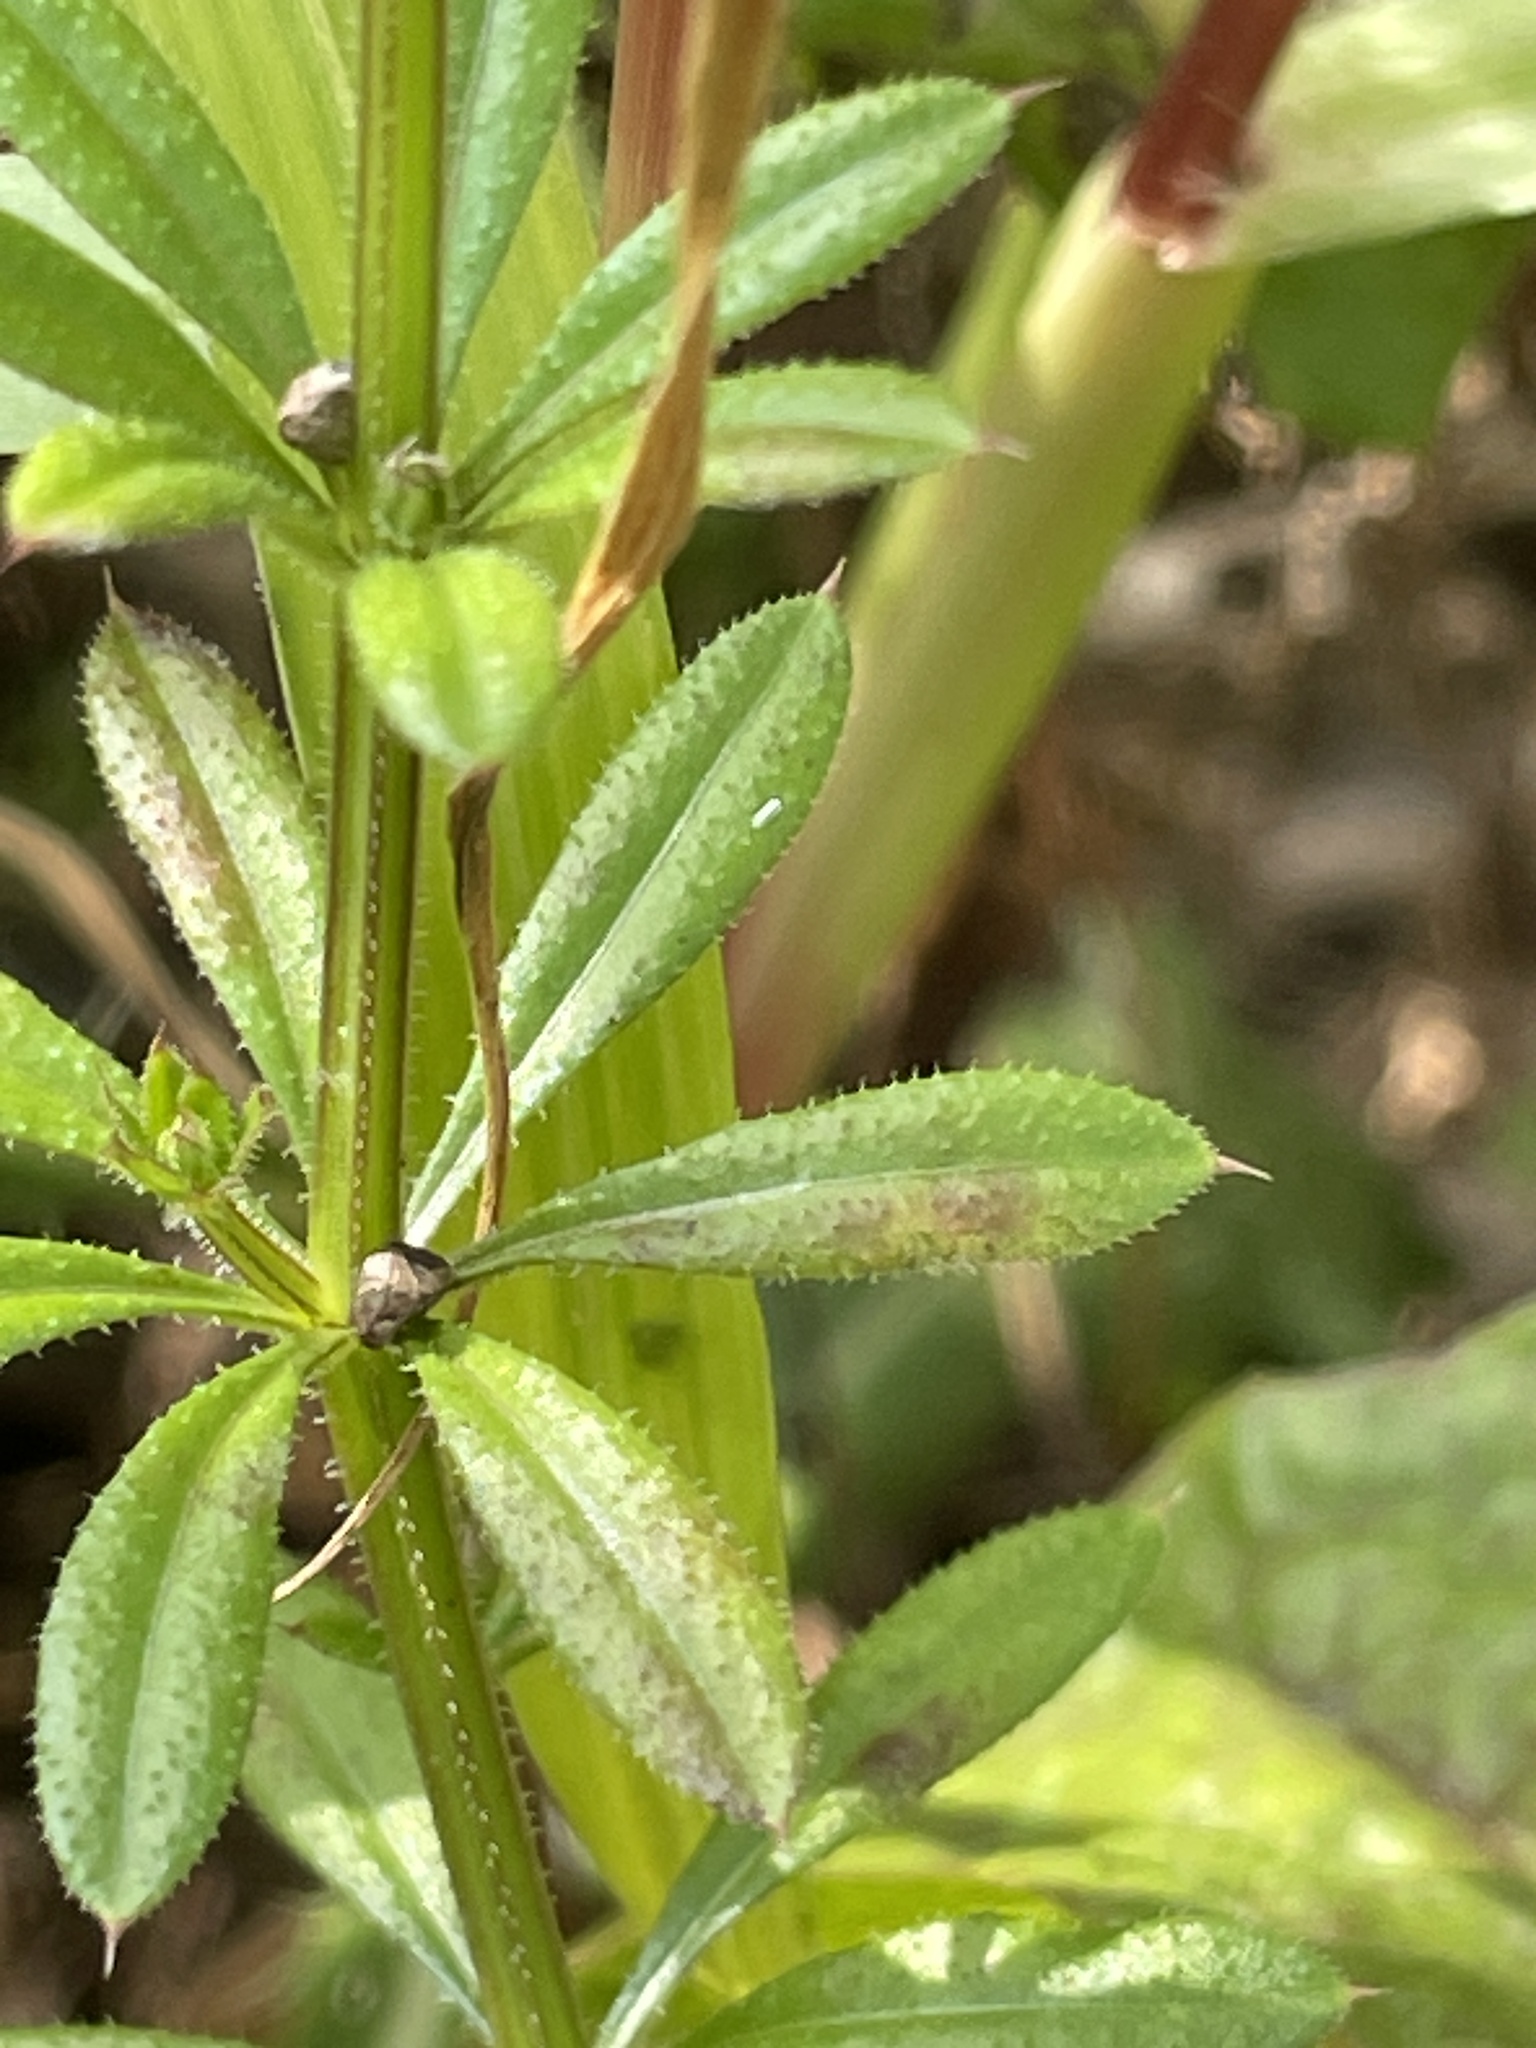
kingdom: Plantae
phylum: Tracheophyta
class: Magnoliopsida
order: Gentianales
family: Rubiaceae
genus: Galium
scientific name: Galium aparine
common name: Cleavers
